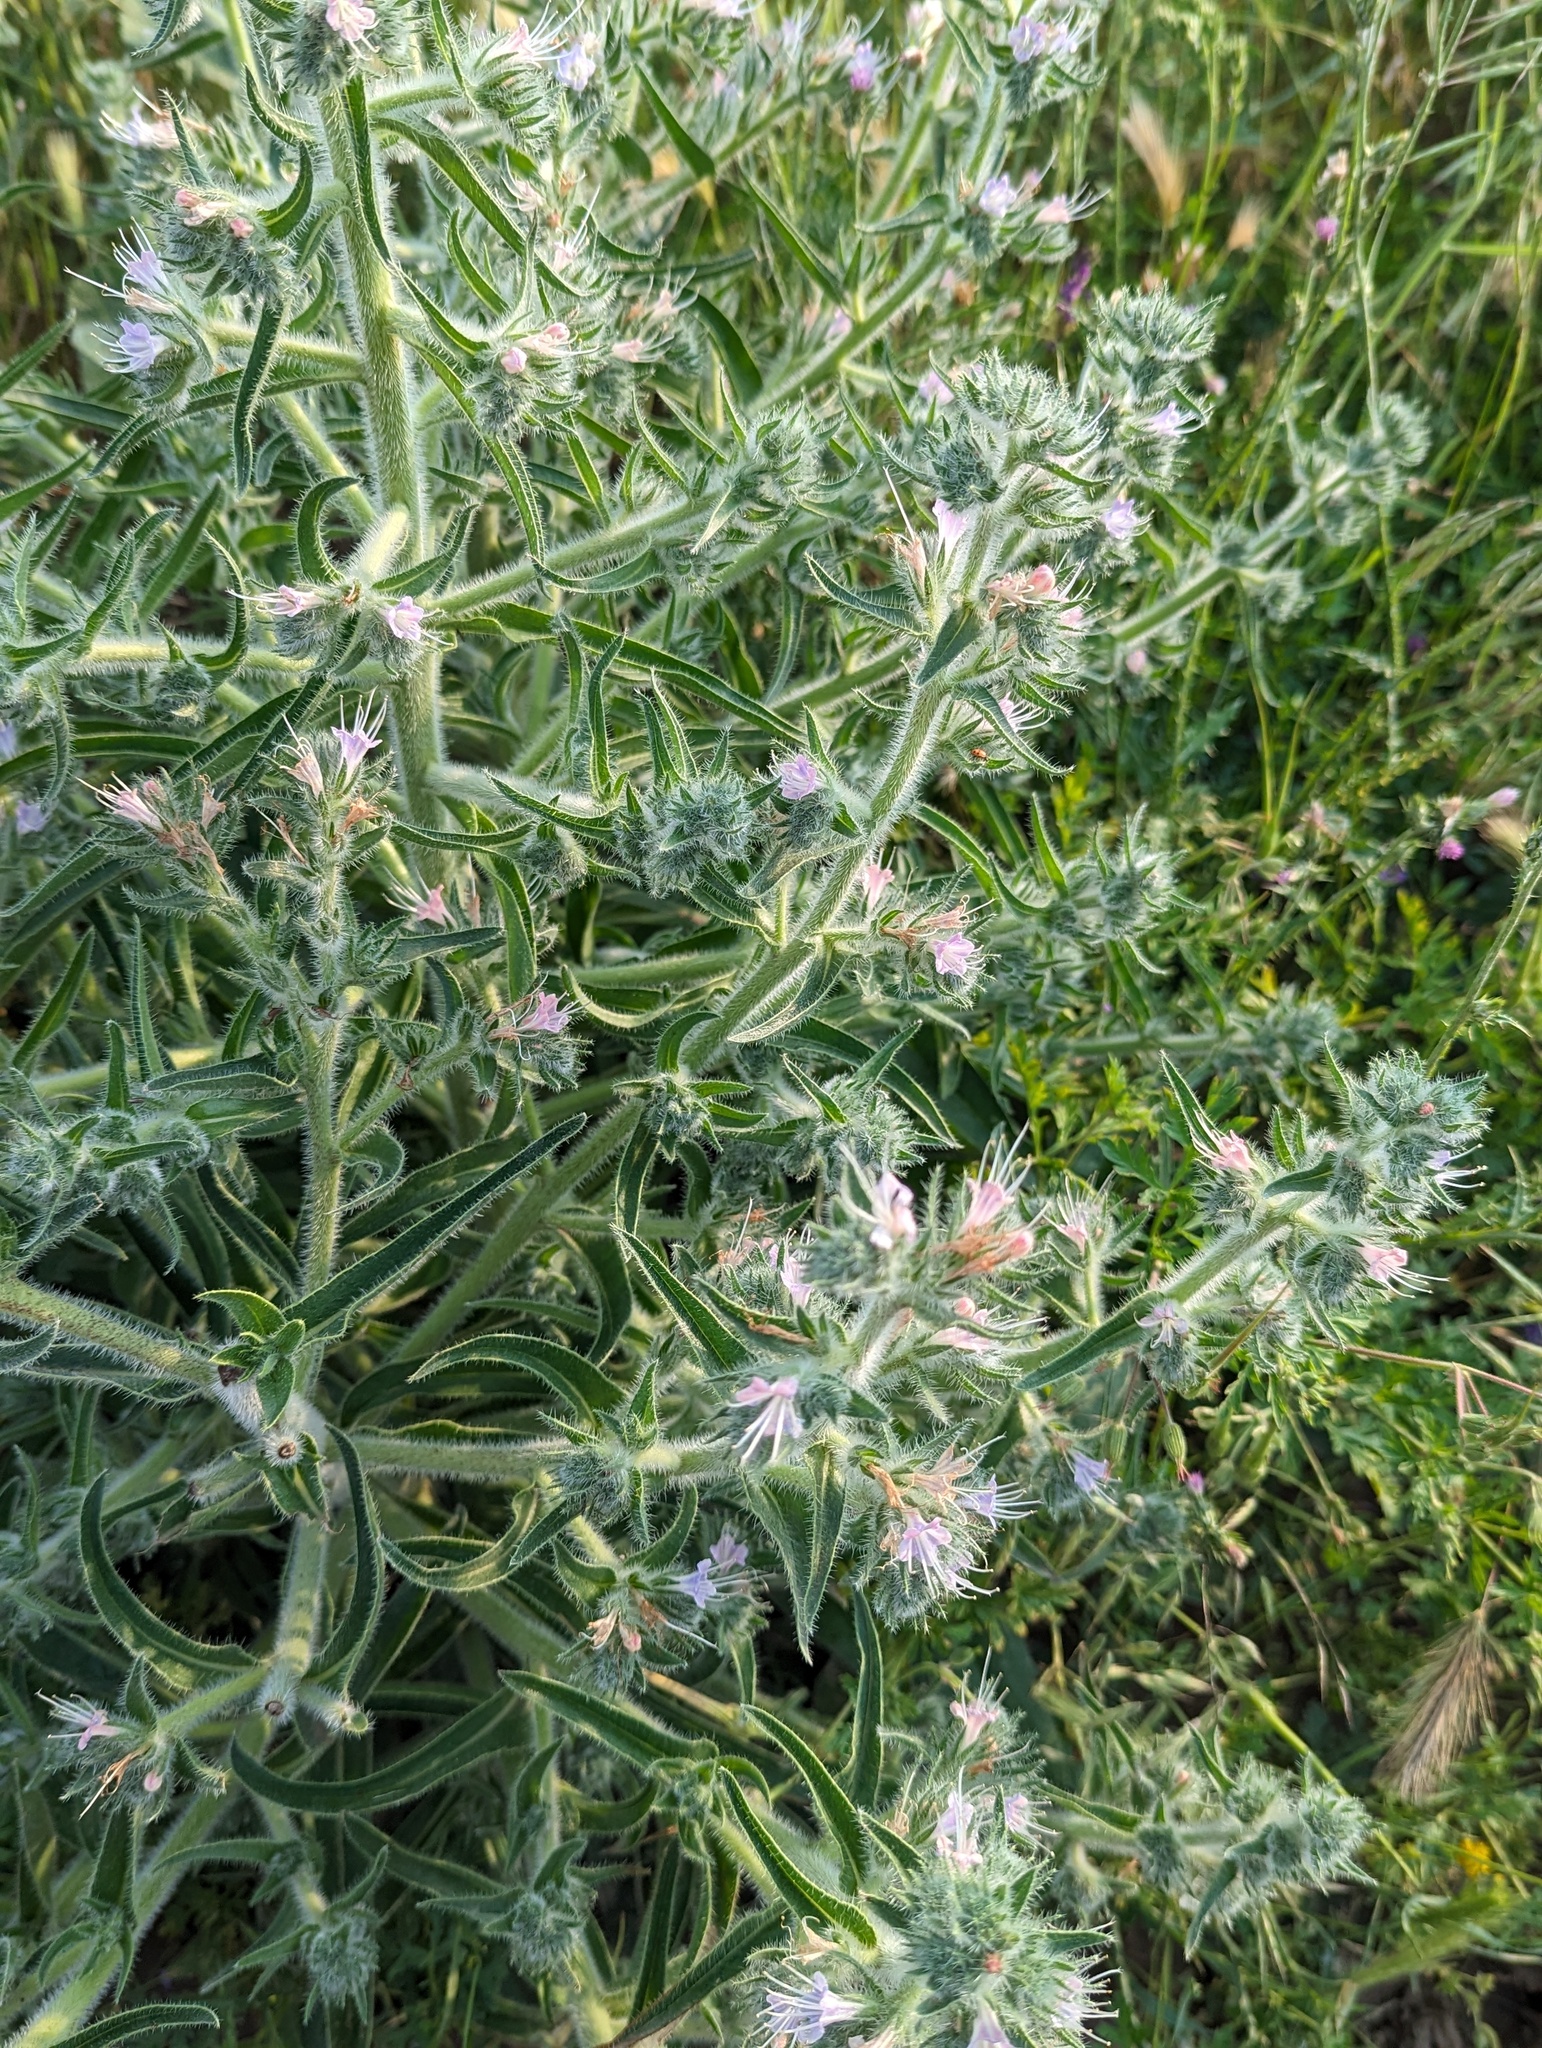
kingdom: Plantae
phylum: Tracheophyta
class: Magnoliopsida
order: Boraginales
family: Boraginaceae
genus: Echium
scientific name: Echium italicum
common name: Italian viper's bugloss
